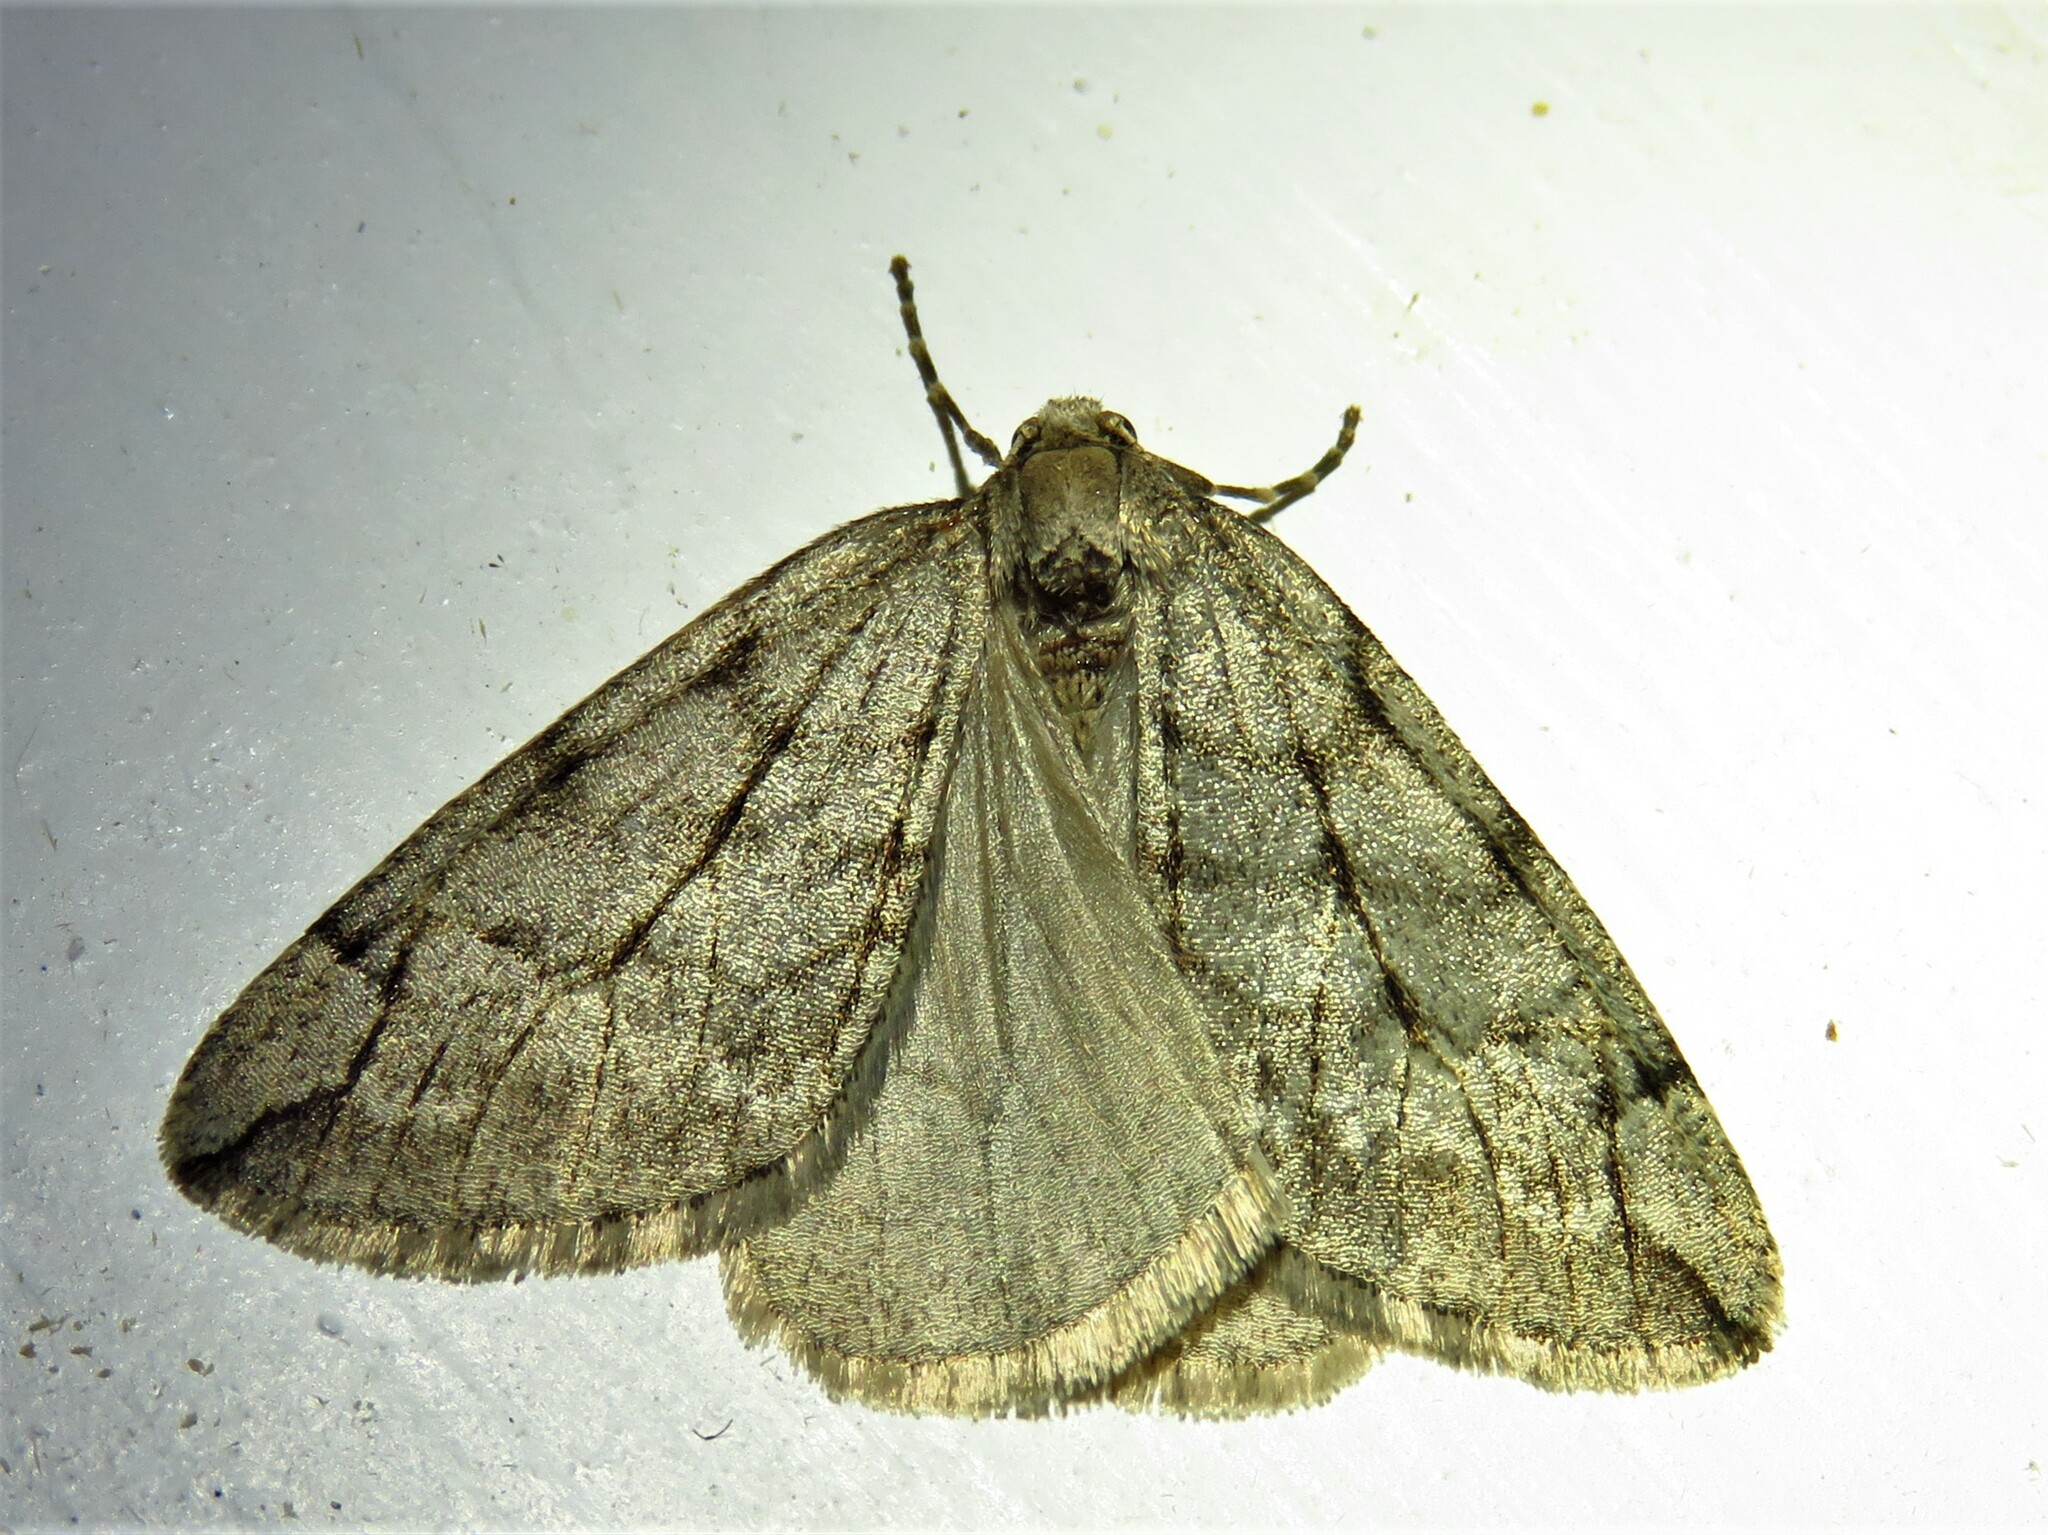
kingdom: Animalia
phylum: Arthropoda
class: Insecta
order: Lepidoptera
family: Geometridae
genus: Paleacrita
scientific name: Paleacrita vernata
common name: Spring cankerworm
